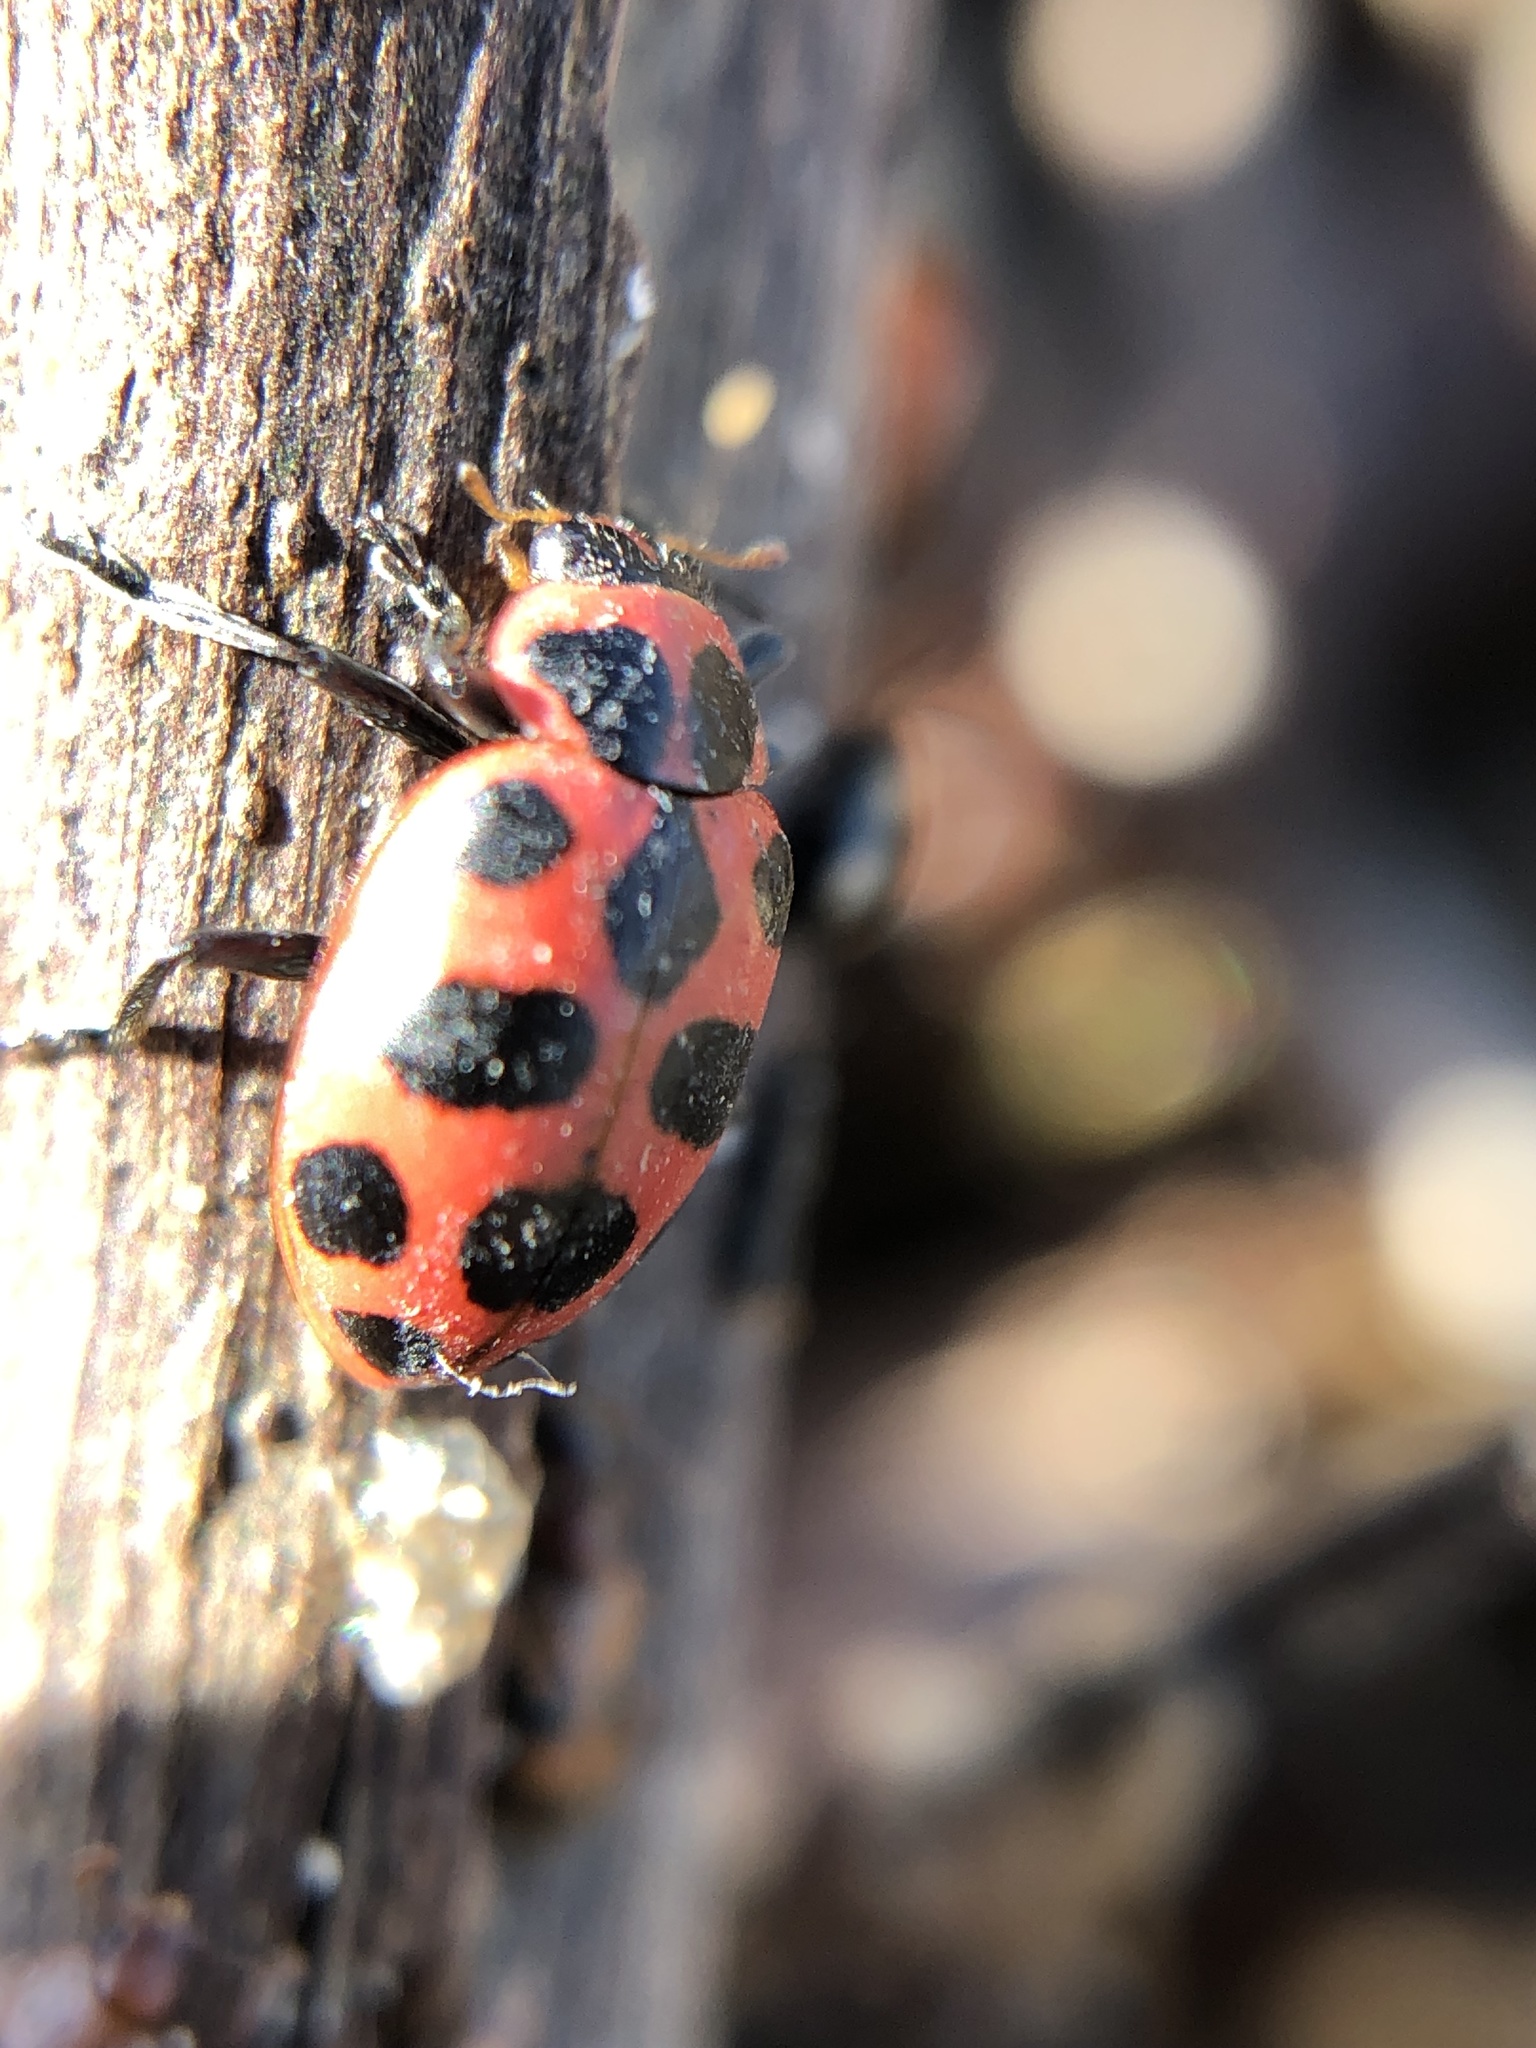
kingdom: Animalia
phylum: Arthropoda
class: Insecta
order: Coleoptera
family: Coccinellidae
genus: Coleomegilla
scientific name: Coleomegilla maculata
